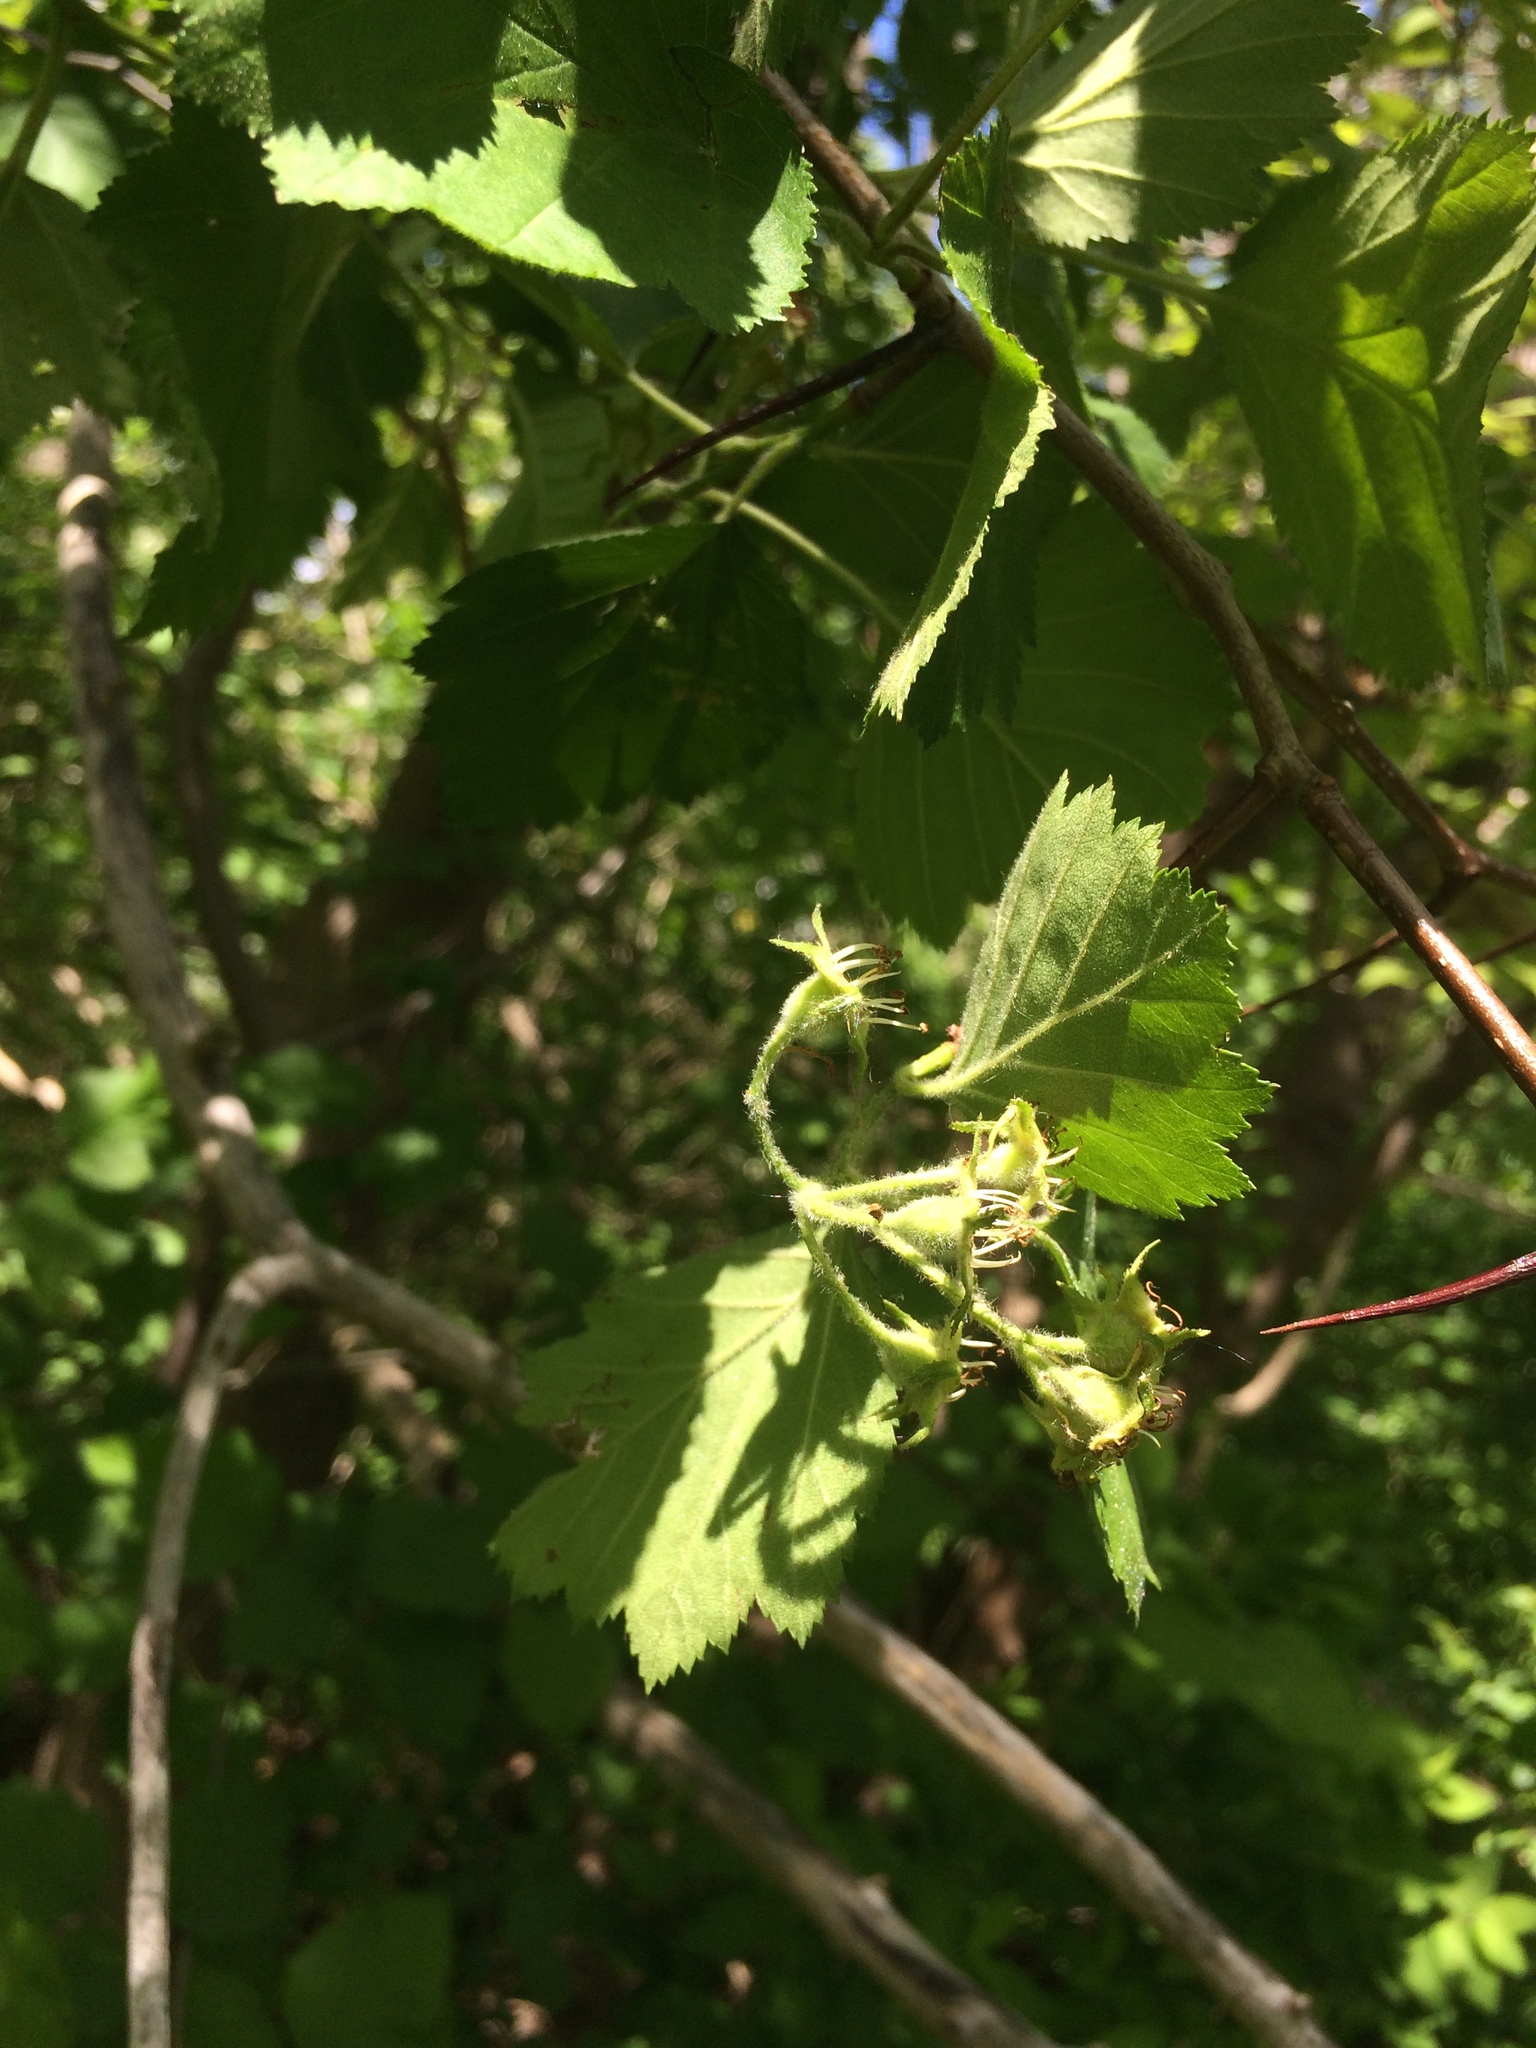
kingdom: Plantae
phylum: Tracheophyta
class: Magnoliopsida
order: Rosales
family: Rosaceae
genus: Crataegus
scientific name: Crataegus submollis
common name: Hairy cockspurthorn
